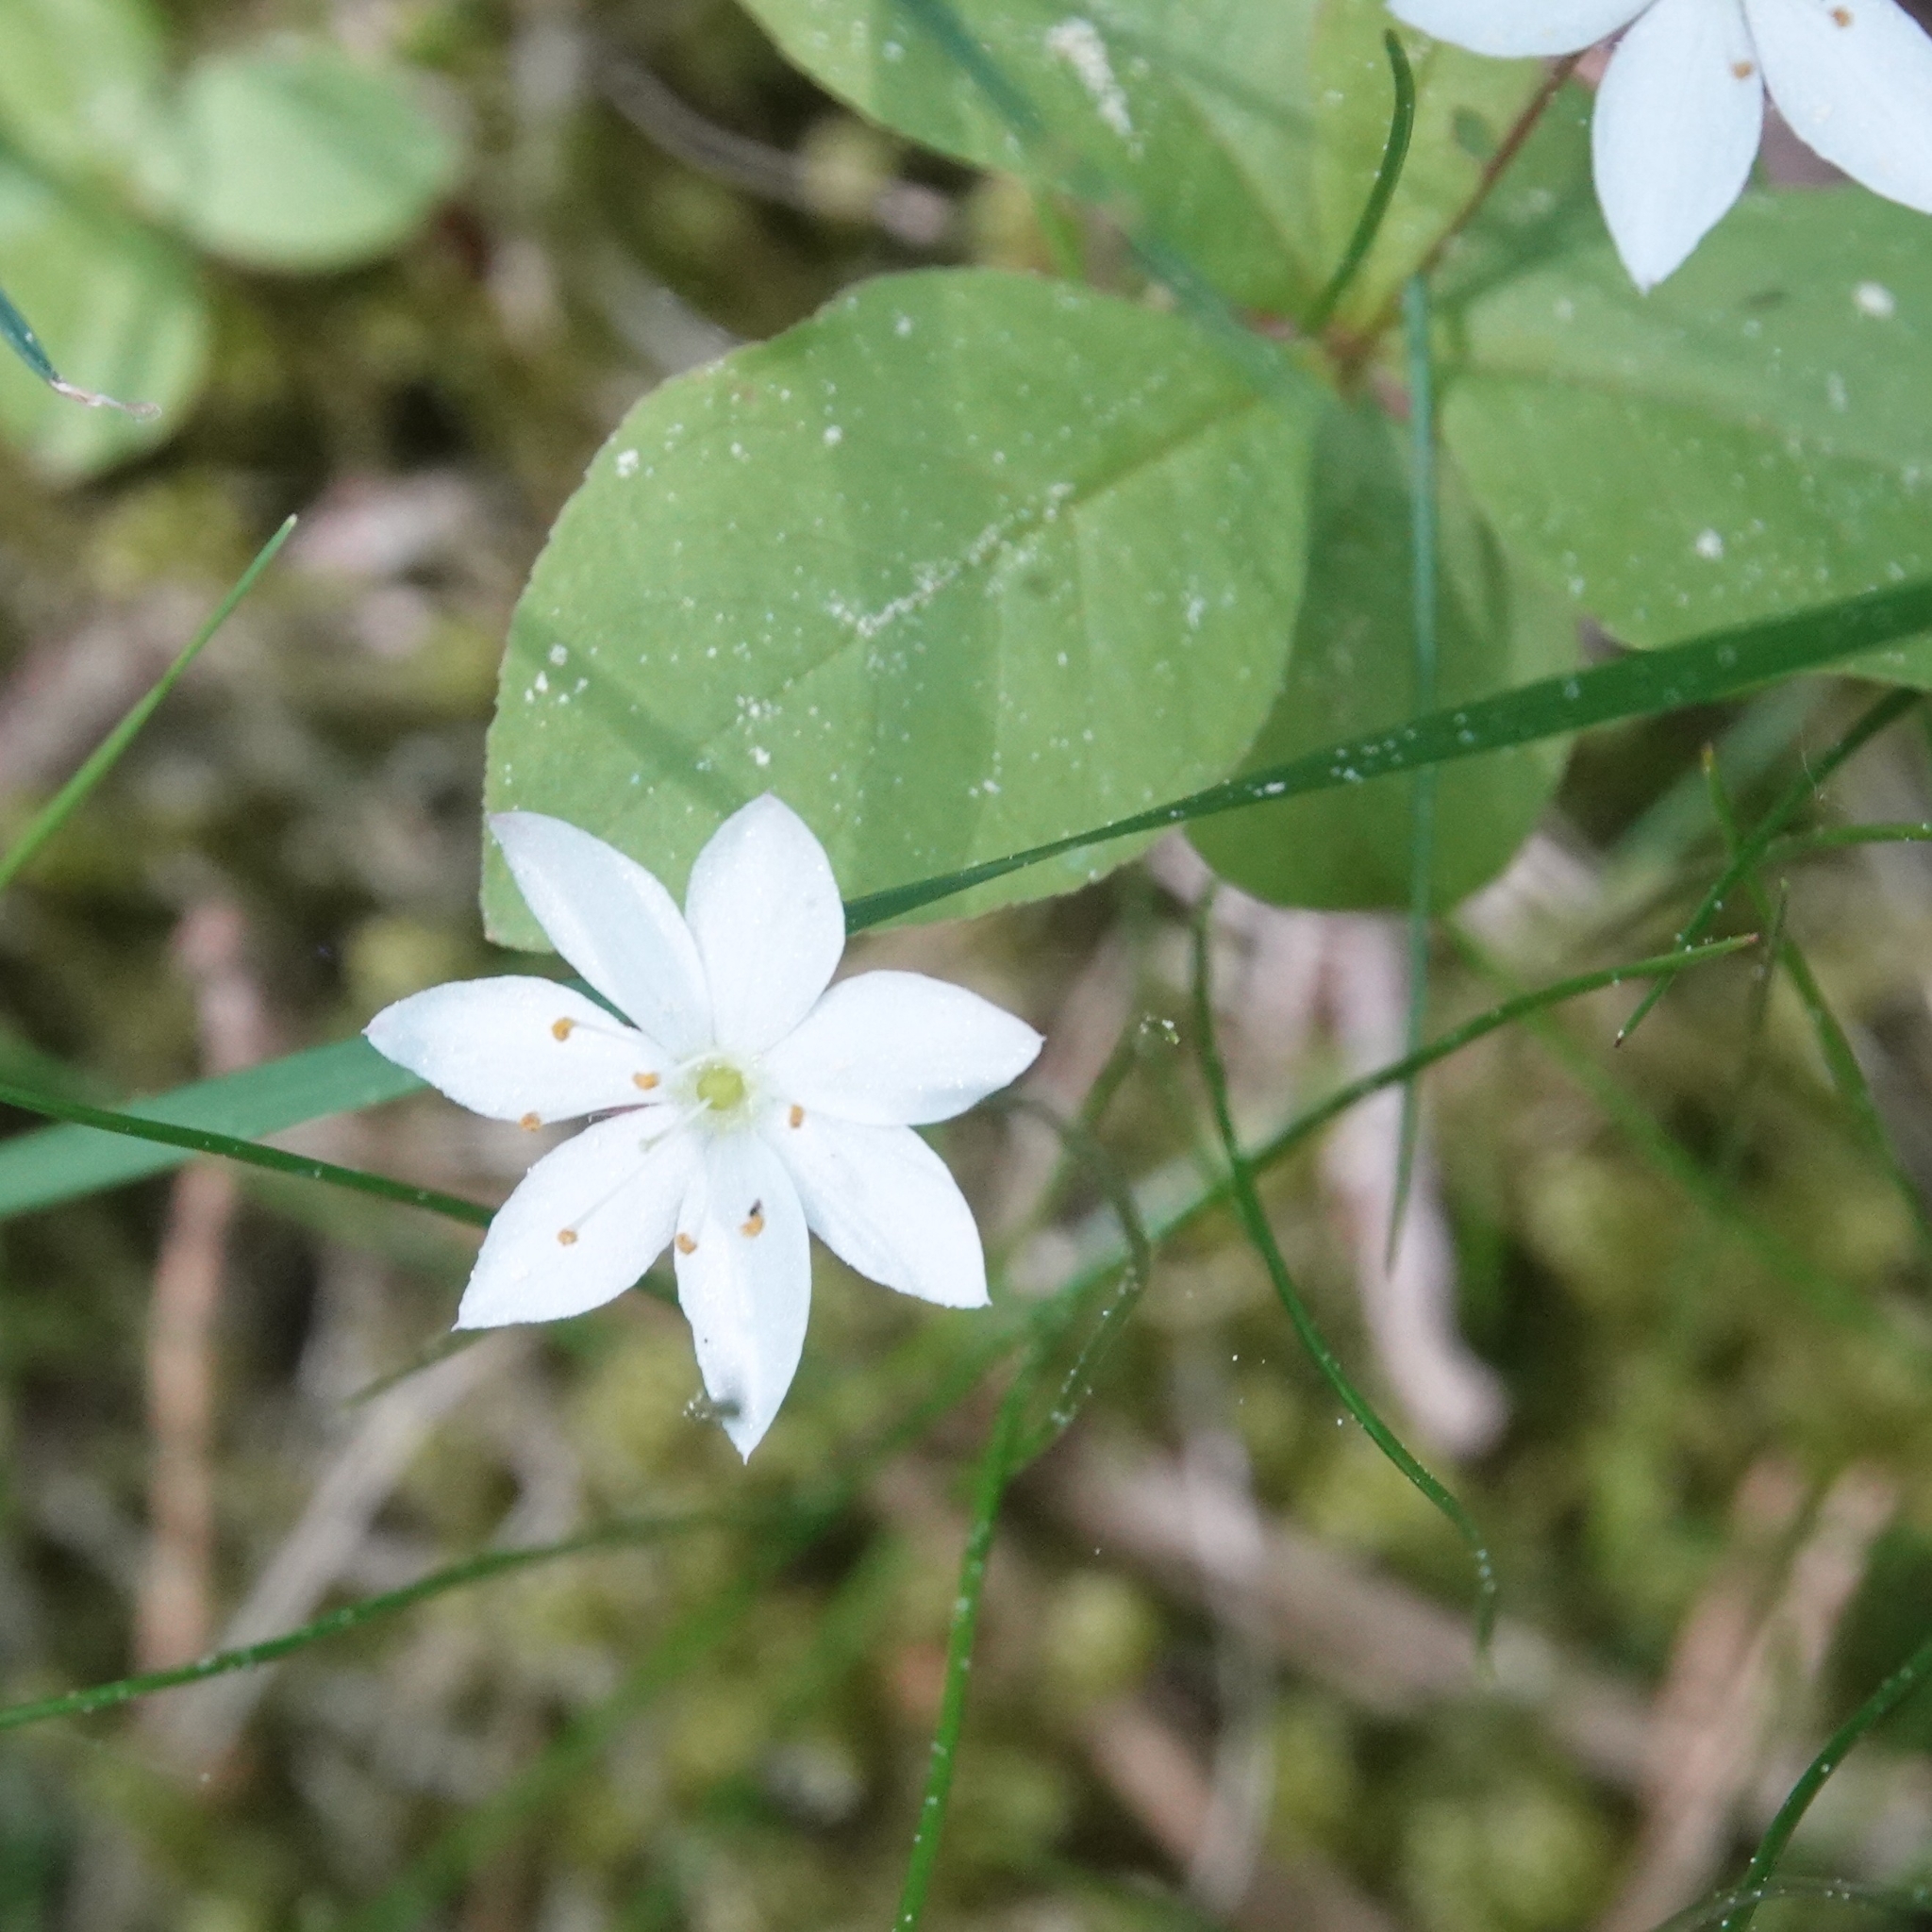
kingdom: Plantae
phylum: Tracheophyta
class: Magnoliopsida
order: Ericales
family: Primulaceae
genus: Lysimachia
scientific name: Lysimachia europaea
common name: Arctic starflower
